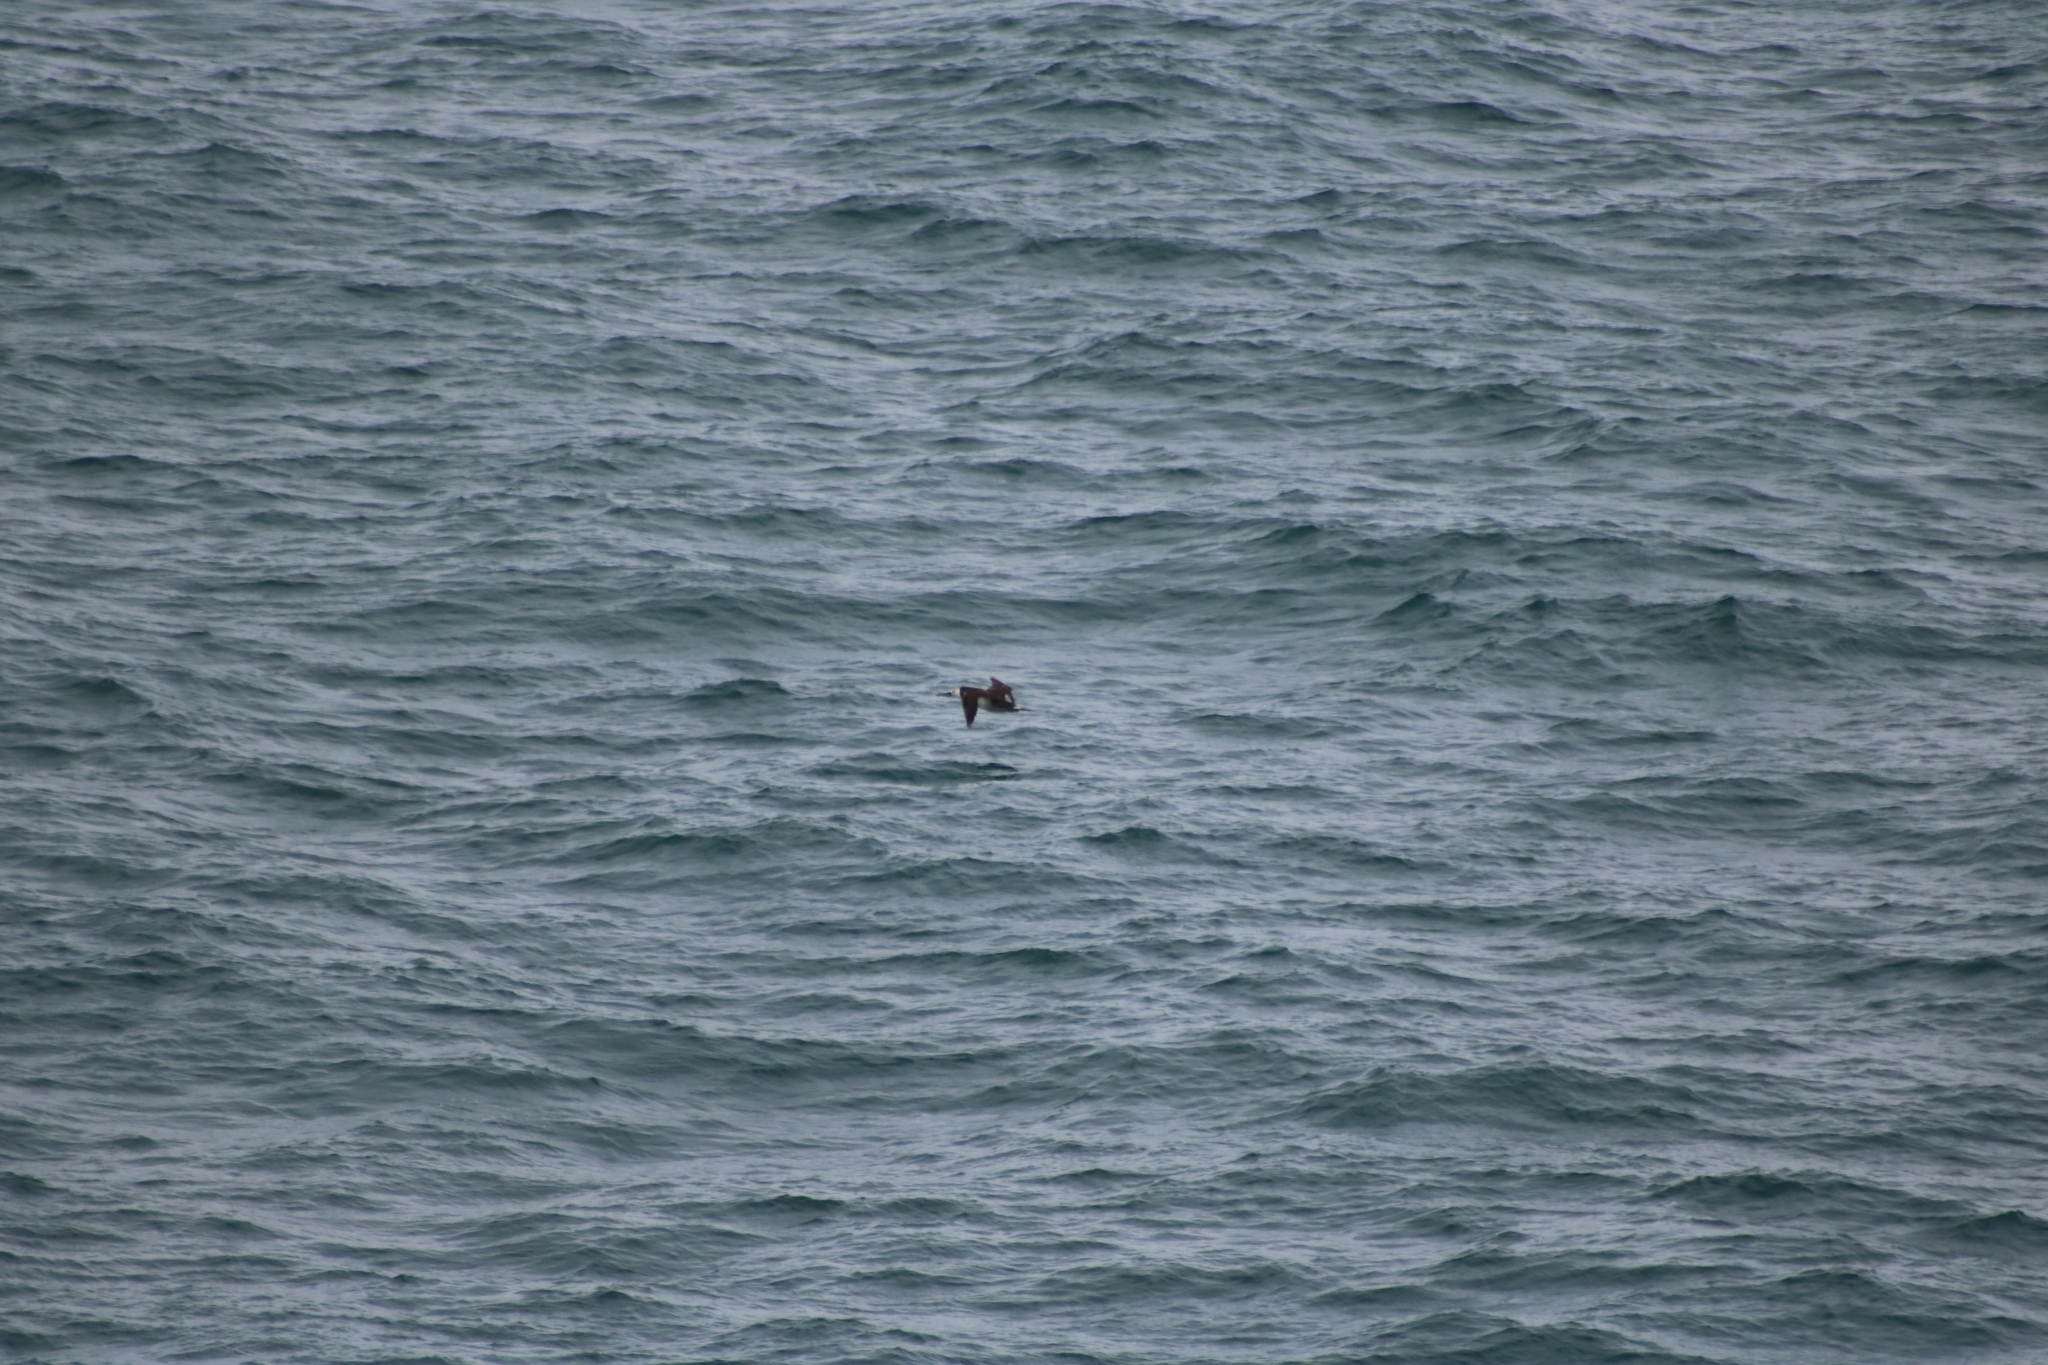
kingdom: Animalia
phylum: Chordata
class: Aves
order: Suliformes
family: Sulidae
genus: Morus
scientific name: Morus bassanus
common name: Northern gannet
